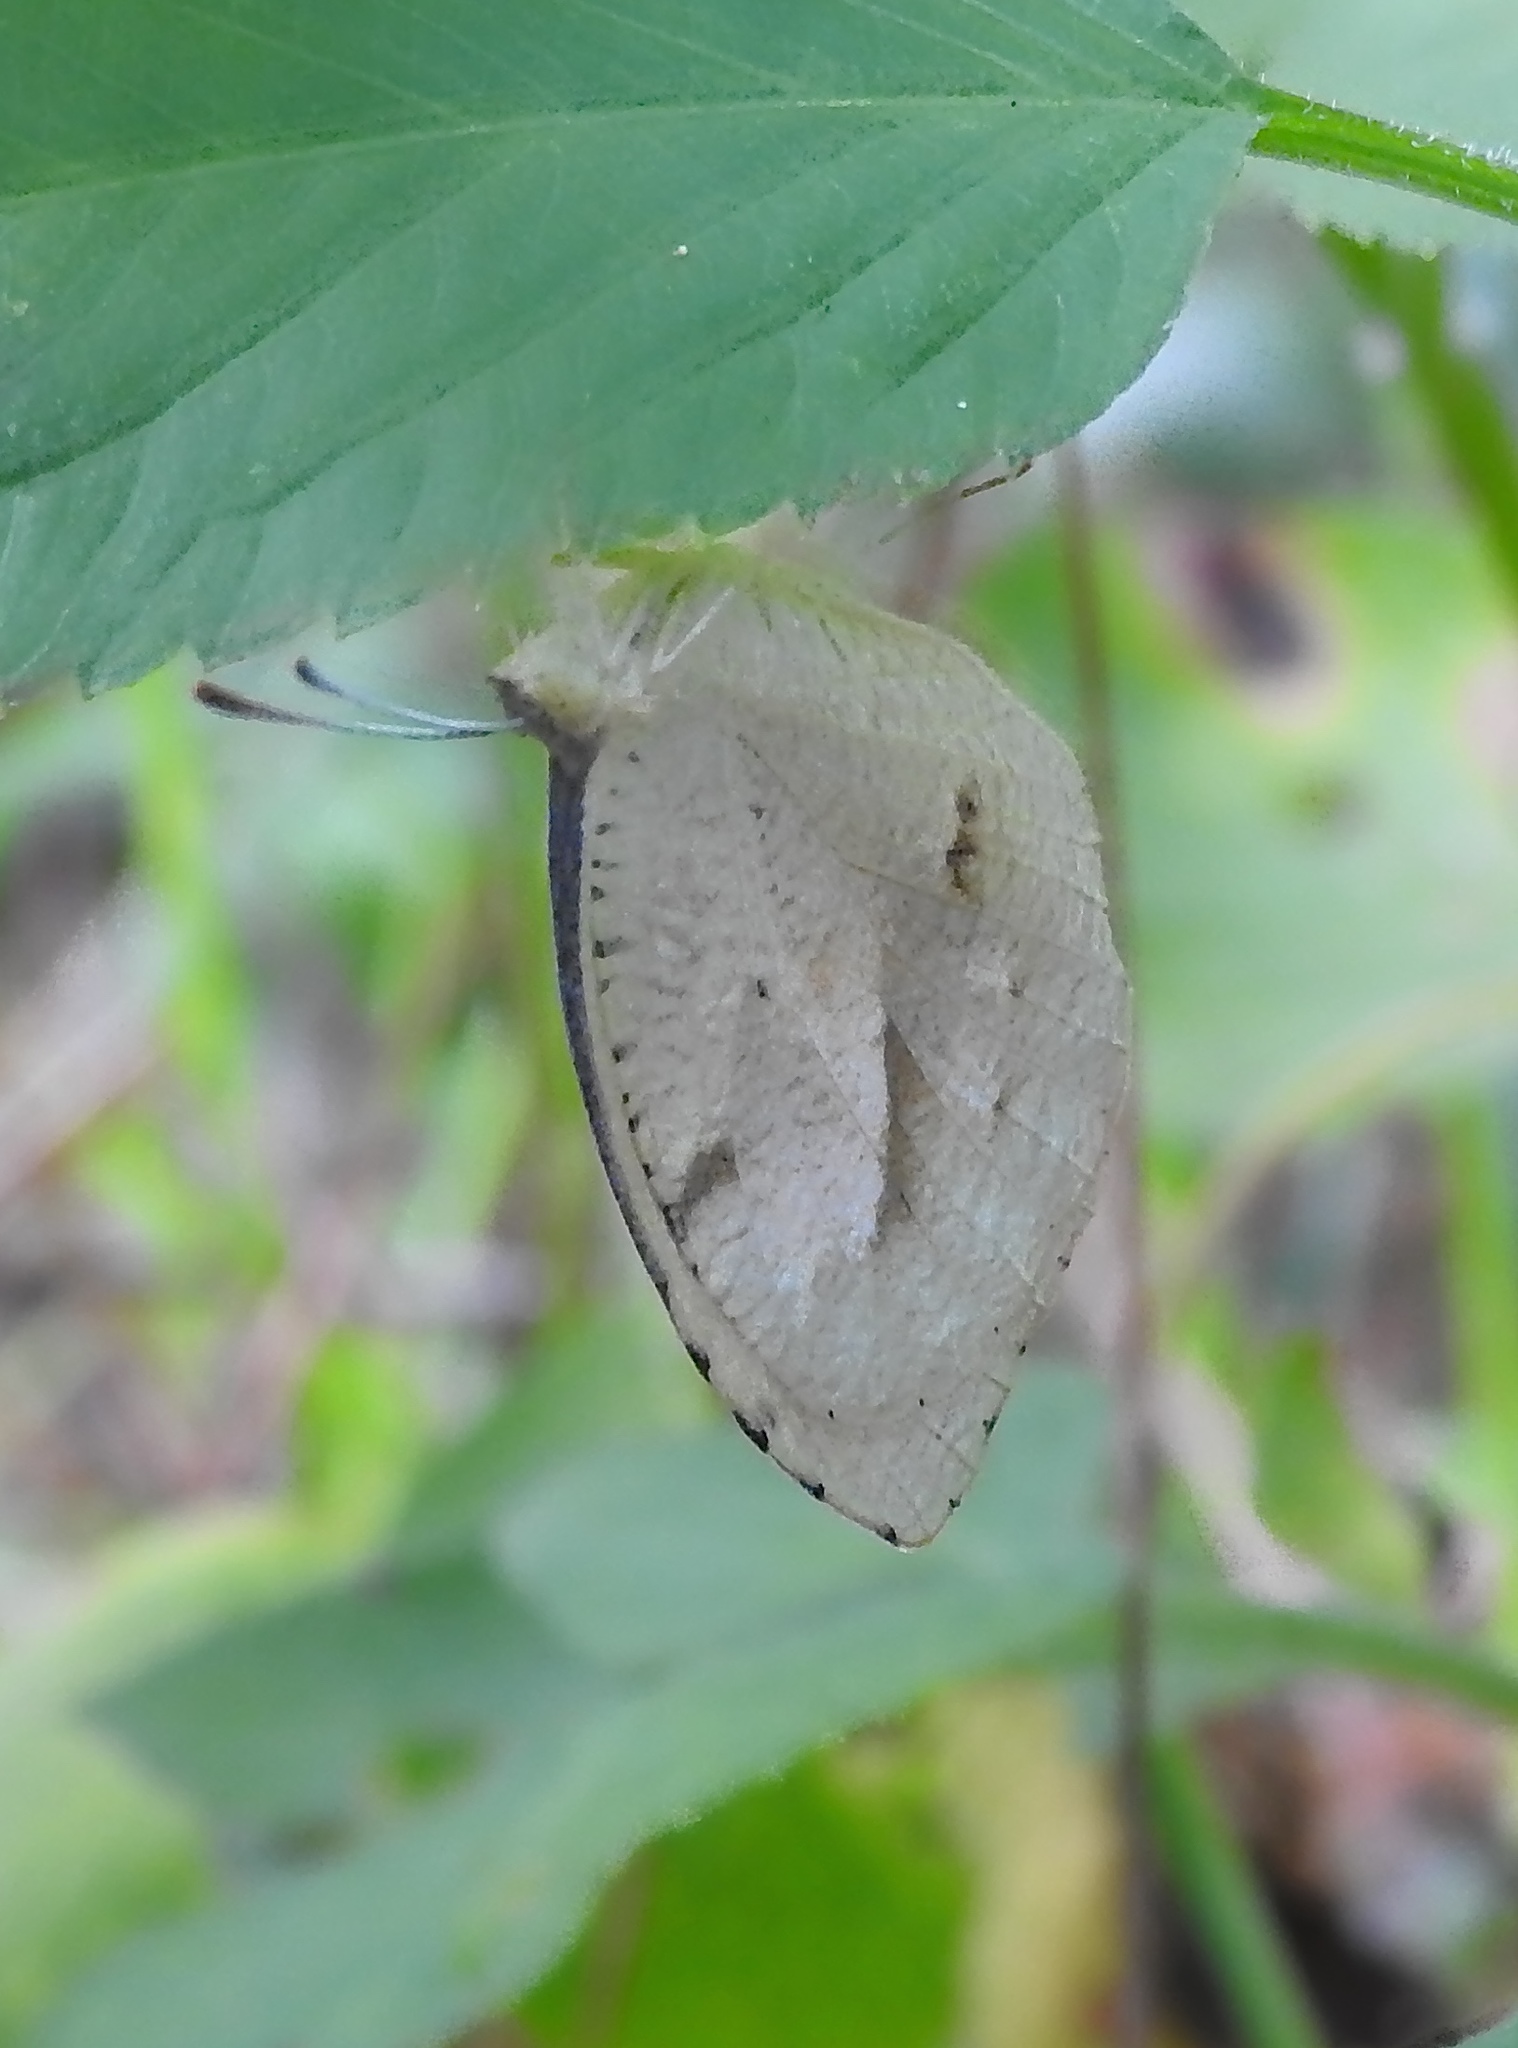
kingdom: Animalia
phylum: Arthropoda
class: Insecta
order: Lepidoptera
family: Pieridae
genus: Abaeis
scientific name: Abaeis nicippe
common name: Sleepy orange
